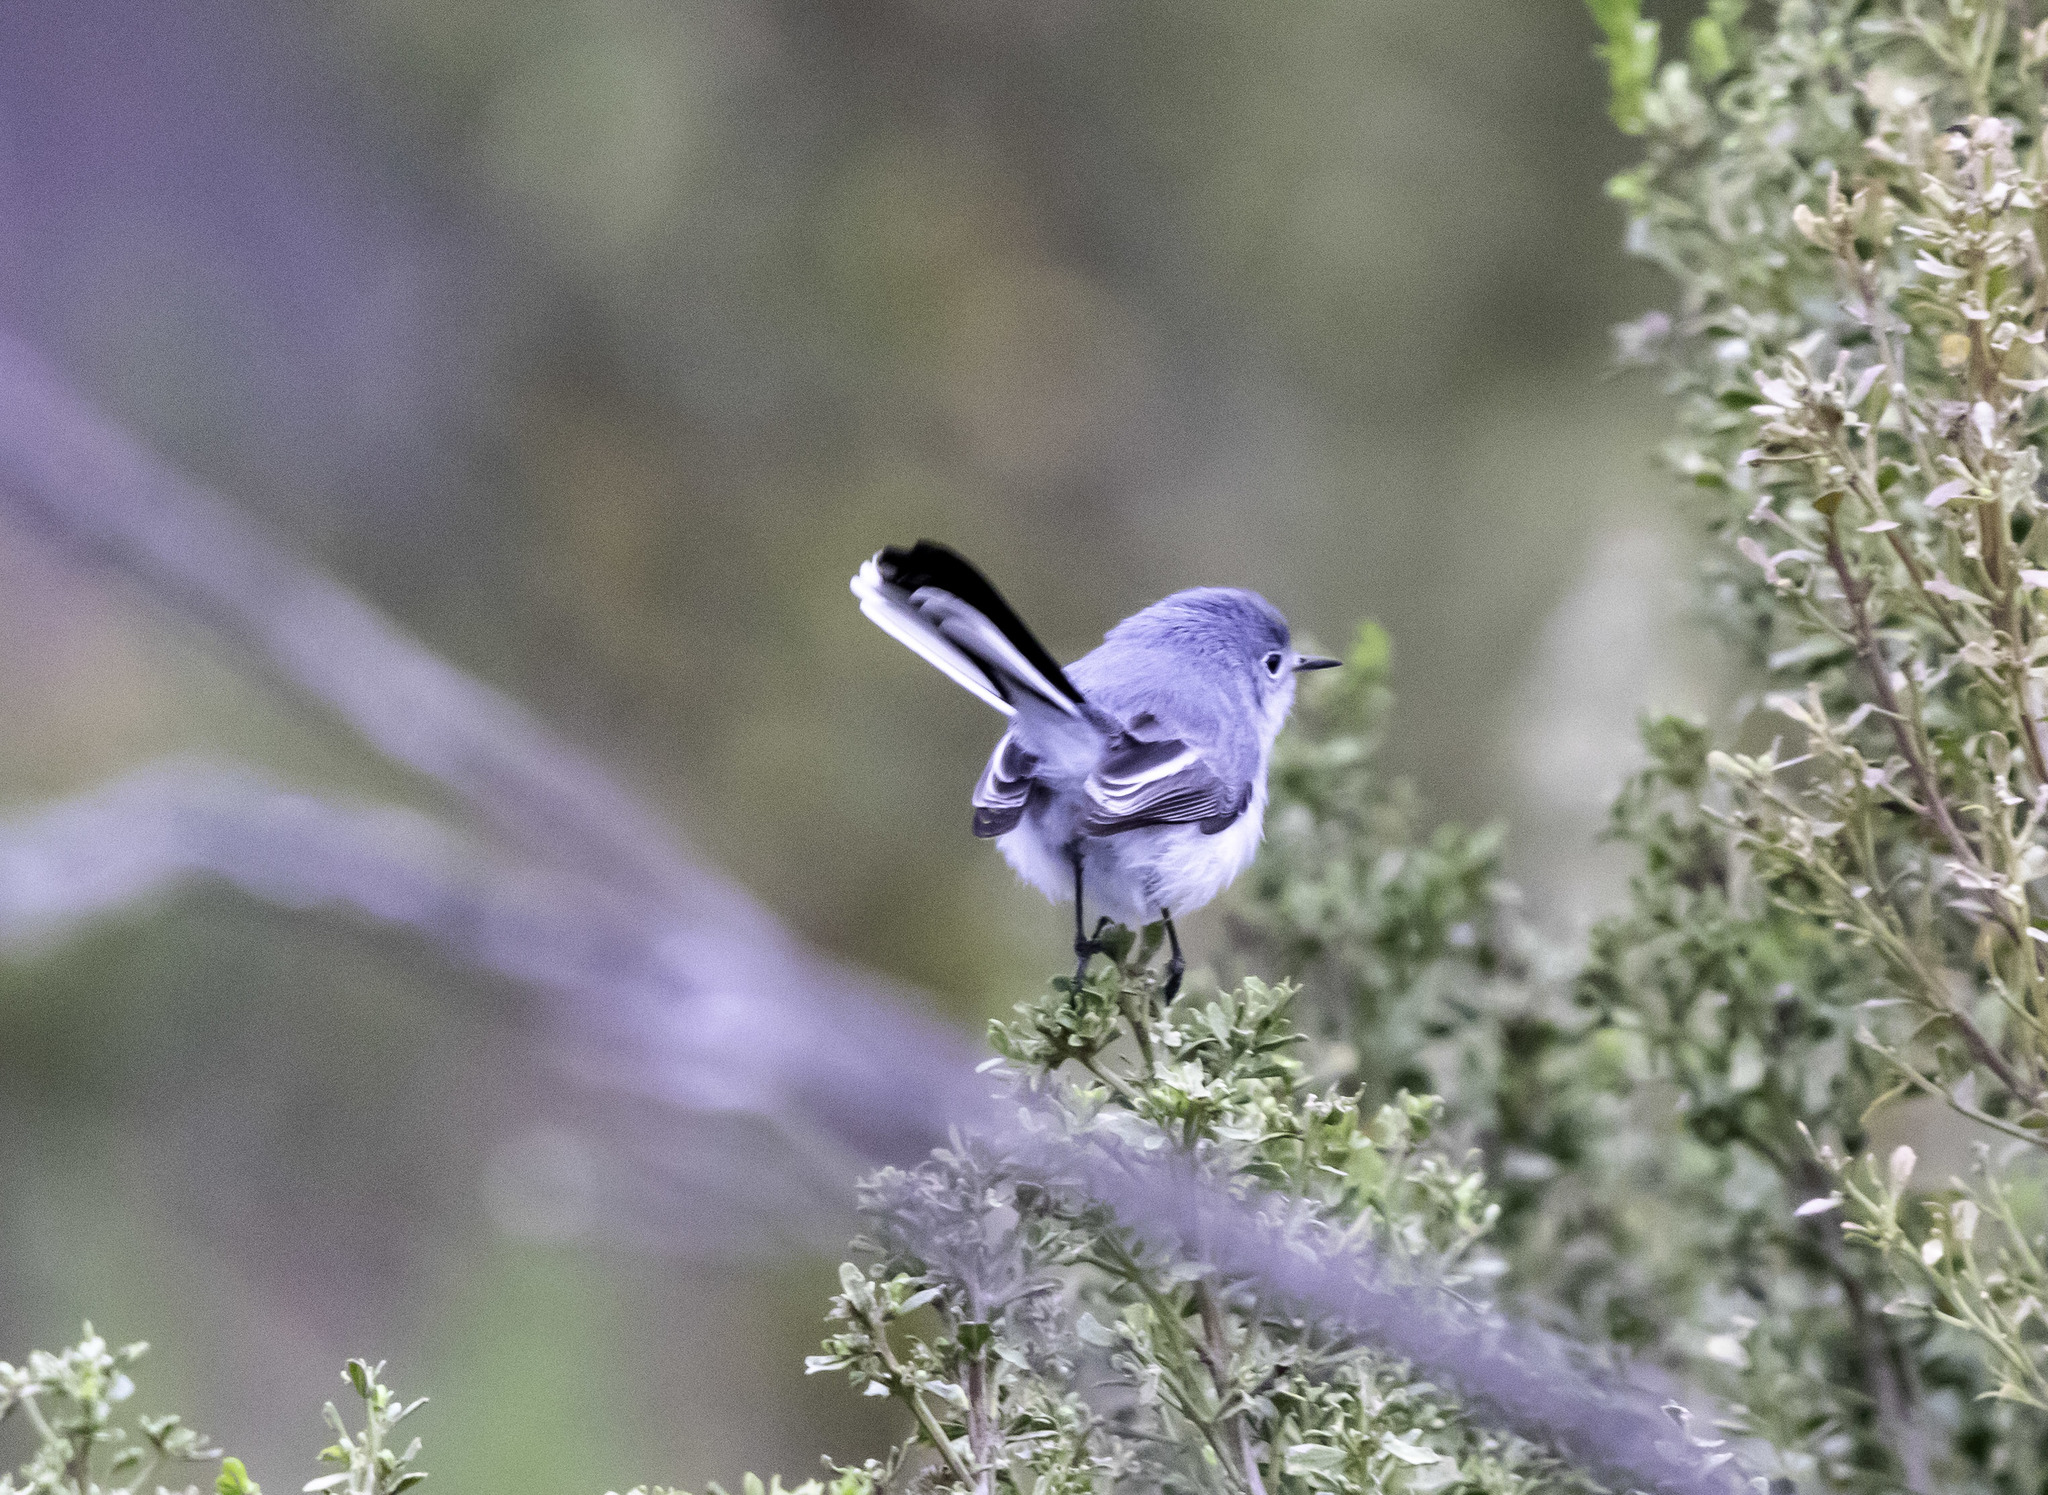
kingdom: Animalia
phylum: Chordata
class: Aves
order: Passeriformes
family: Polioptilidae
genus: Polioptila
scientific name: Polioptila caerulea
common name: Blue-gray gnatcatcher
